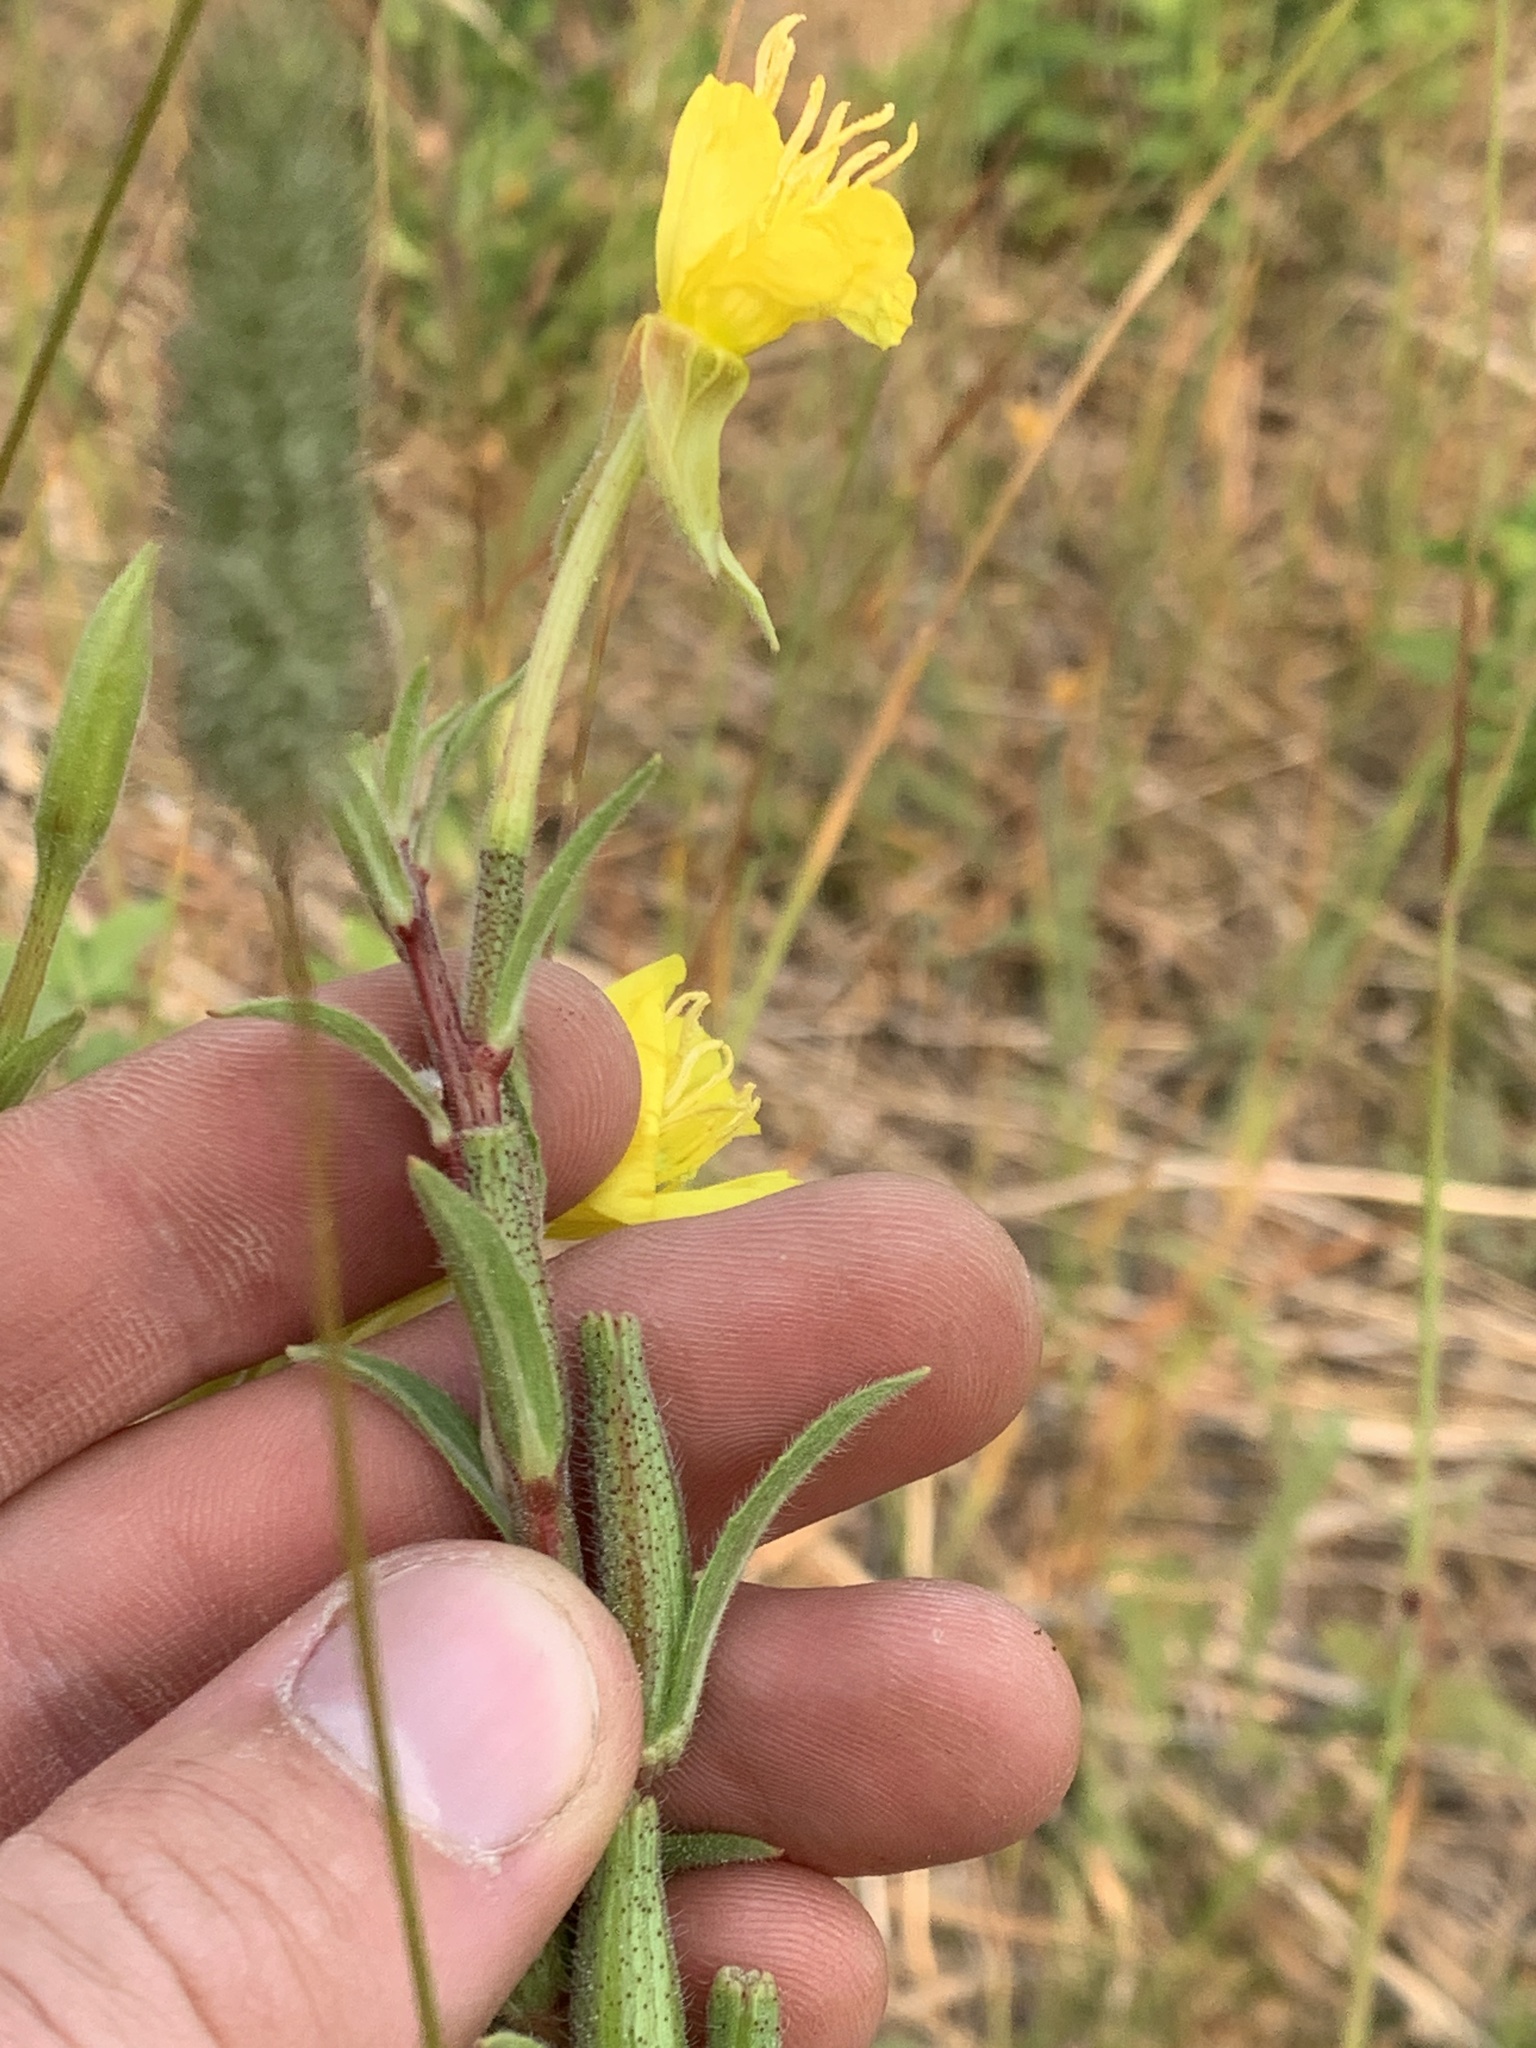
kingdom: Plantae
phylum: Tracheophyta
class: Magnoliopsida
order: Myrtales
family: Onagraceae
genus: Oenothera
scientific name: Oenothera villosa
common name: Hairy evening-primrose
